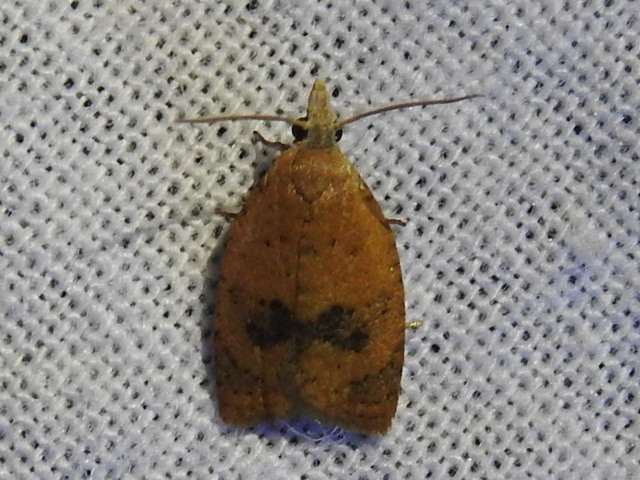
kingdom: Animalia
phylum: Arthropoda
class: Insecta
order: Lepidoptera
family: Tortricidae
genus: Sparganothoides
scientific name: Sparganothoides lentiginosana
